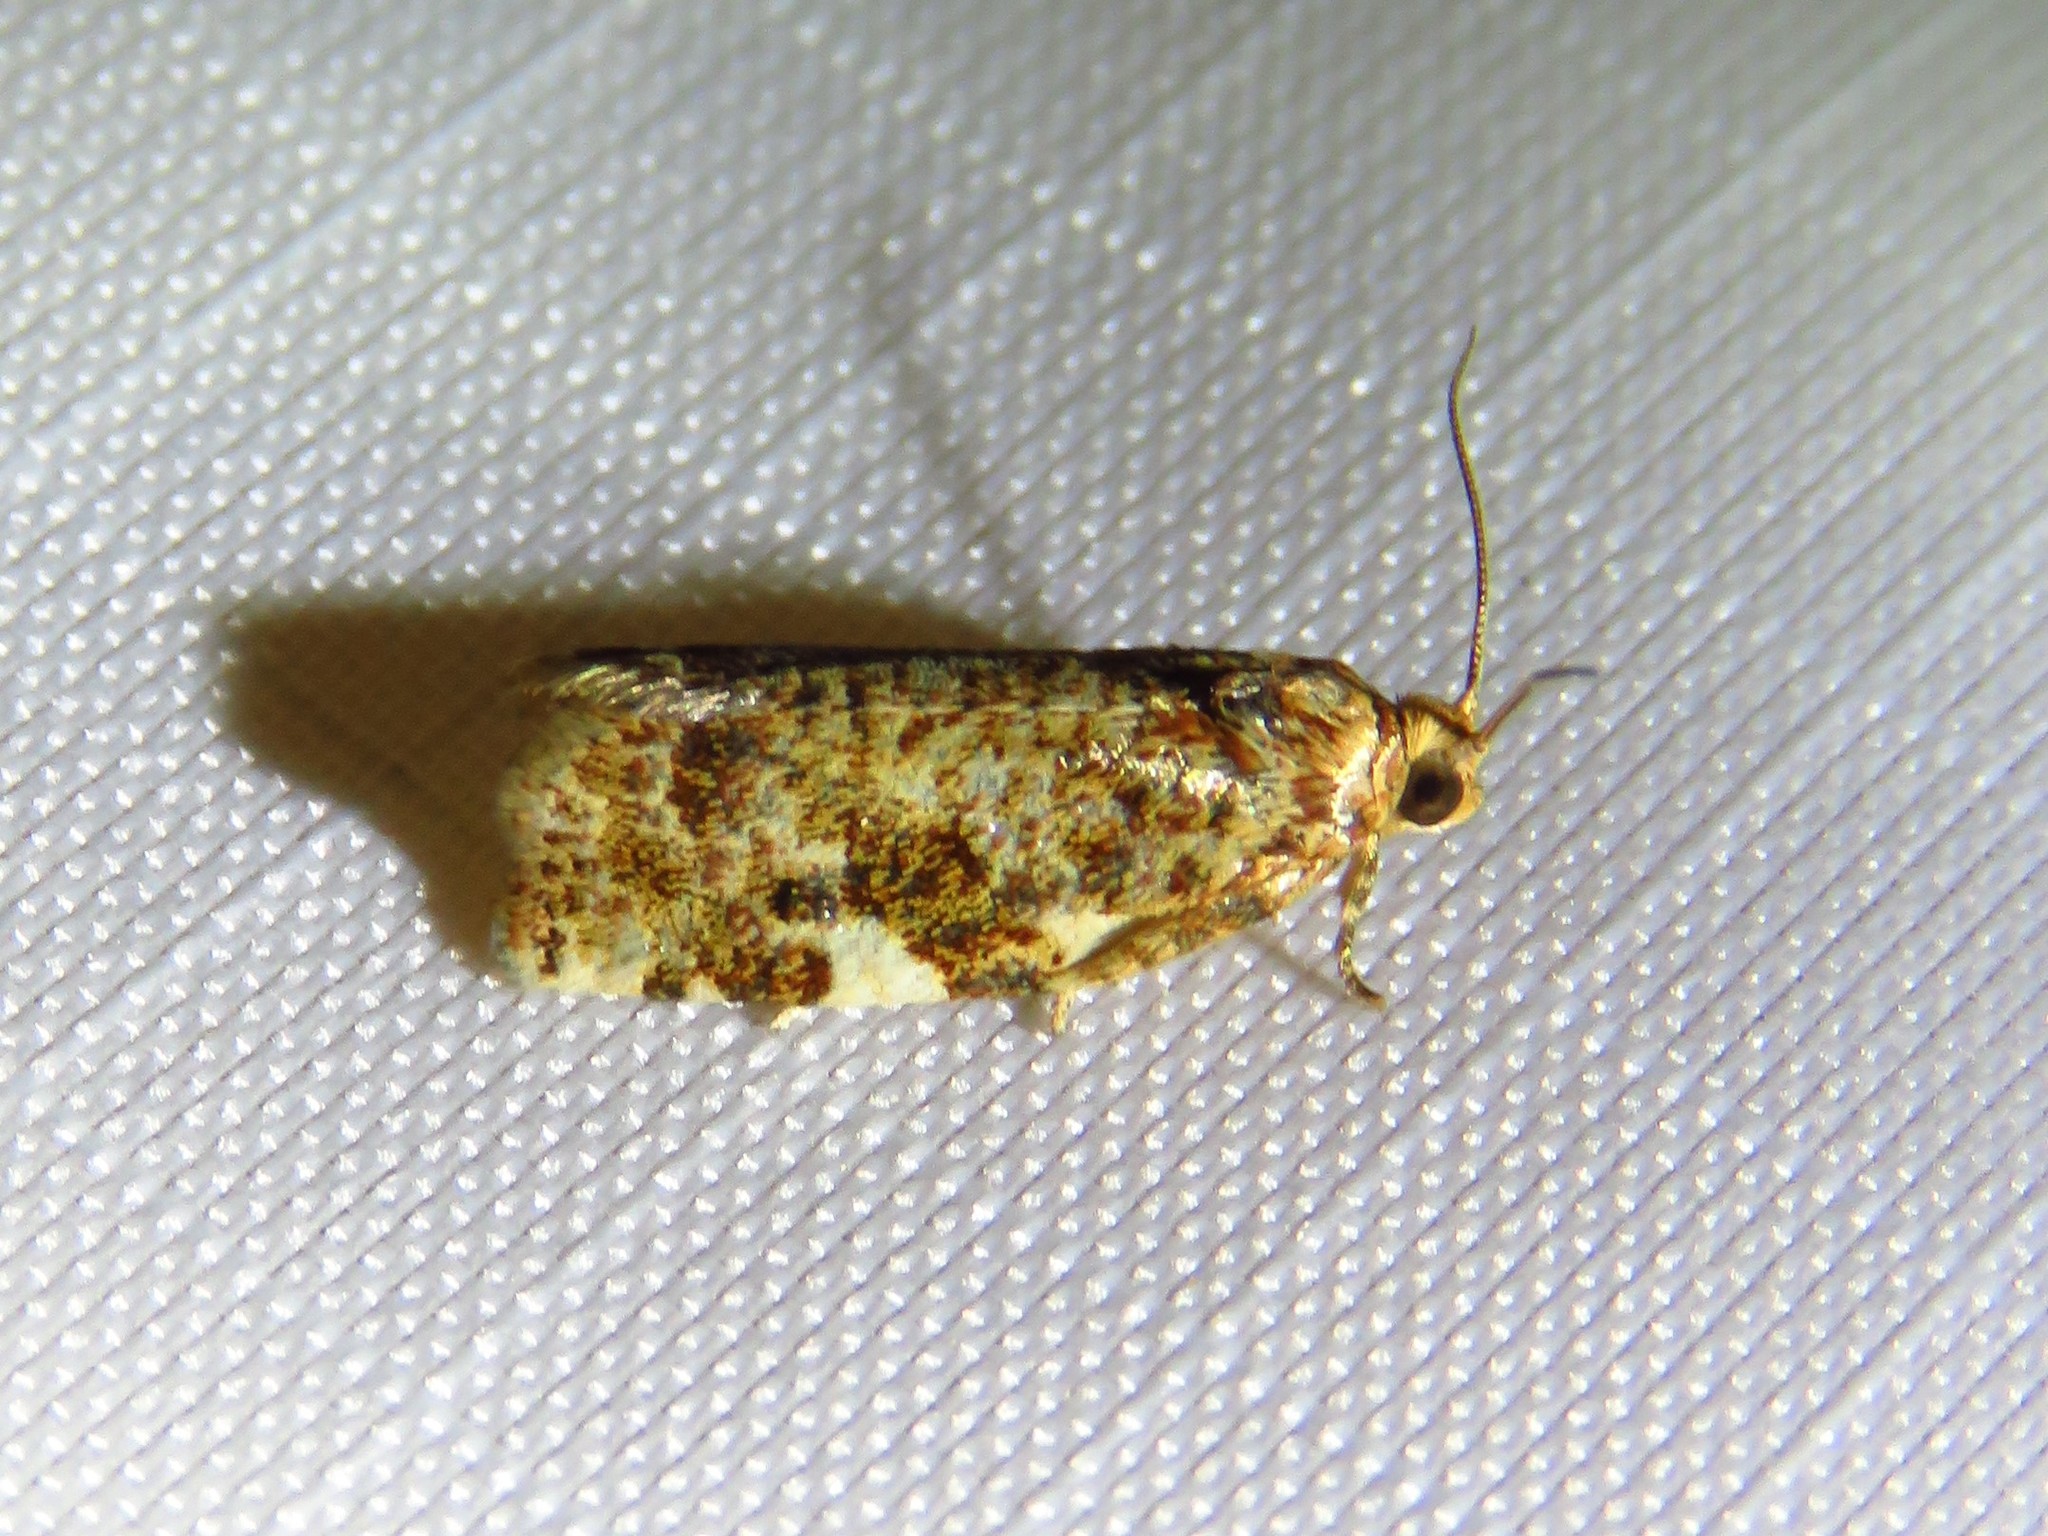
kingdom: Animalia
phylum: Arthropoda
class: Insecta
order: Lepidoptera
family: Tortricidae
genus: Archips
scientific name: Archips argyrospila
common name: Fruit-tree leafroller moth
